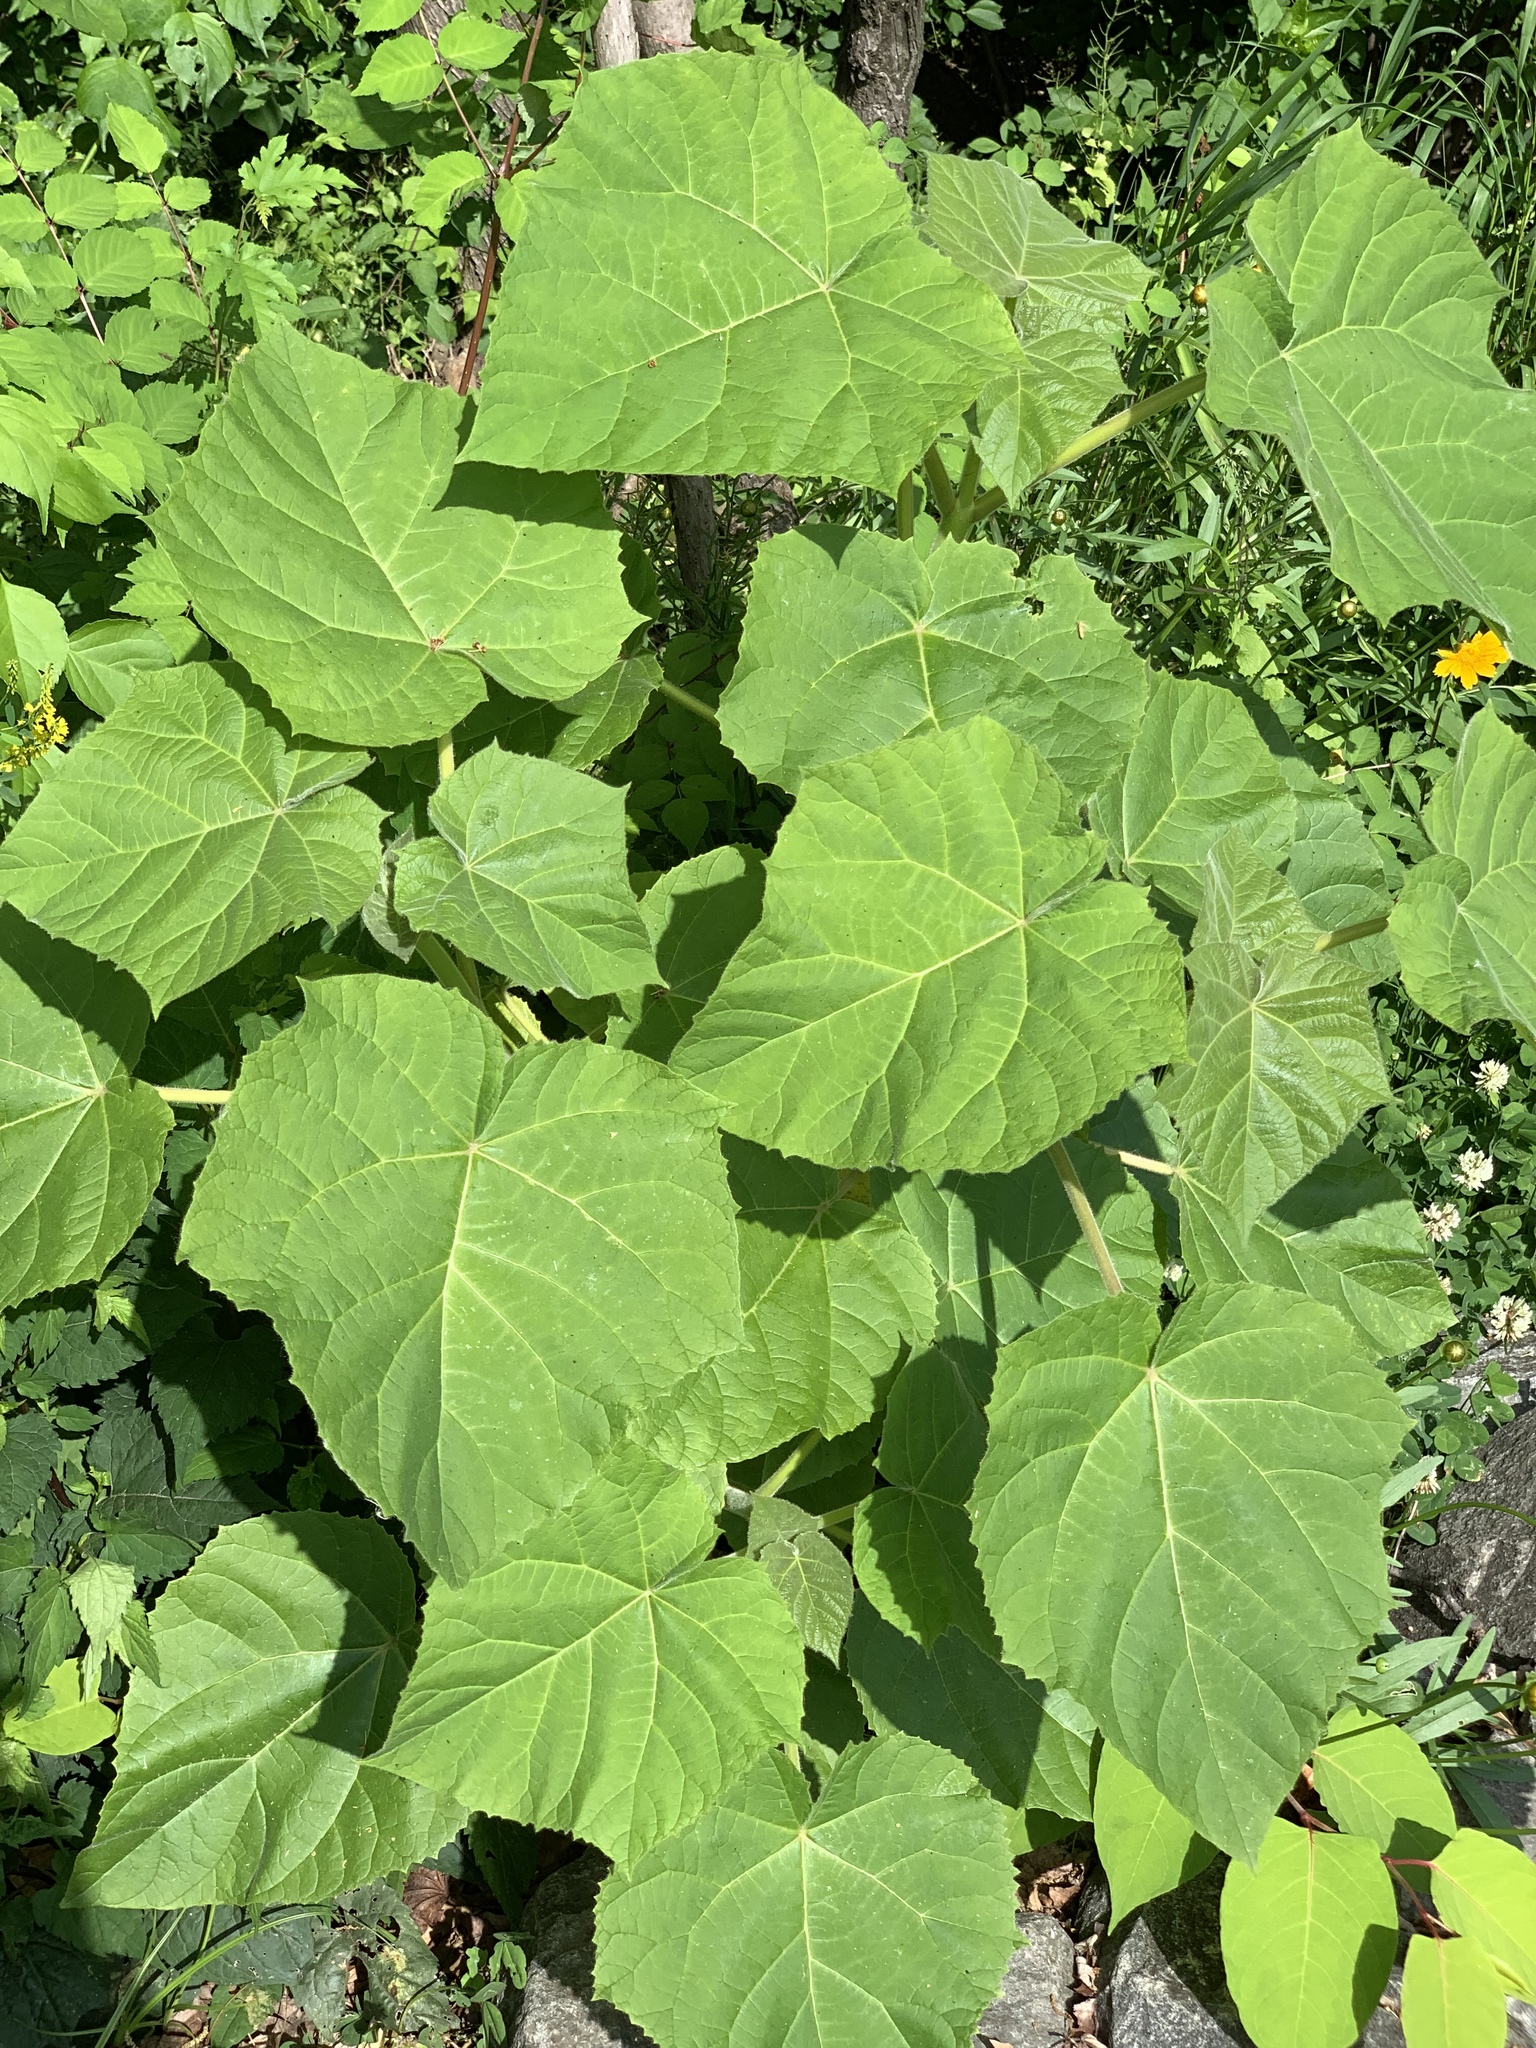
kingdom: Plantae
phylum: Tracheophyta
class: Magnoliopsida
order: Lamiales
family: Paulowniaceae
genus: Paulownia
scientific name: Paulownia tomentosa
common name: Foxglove-tree
